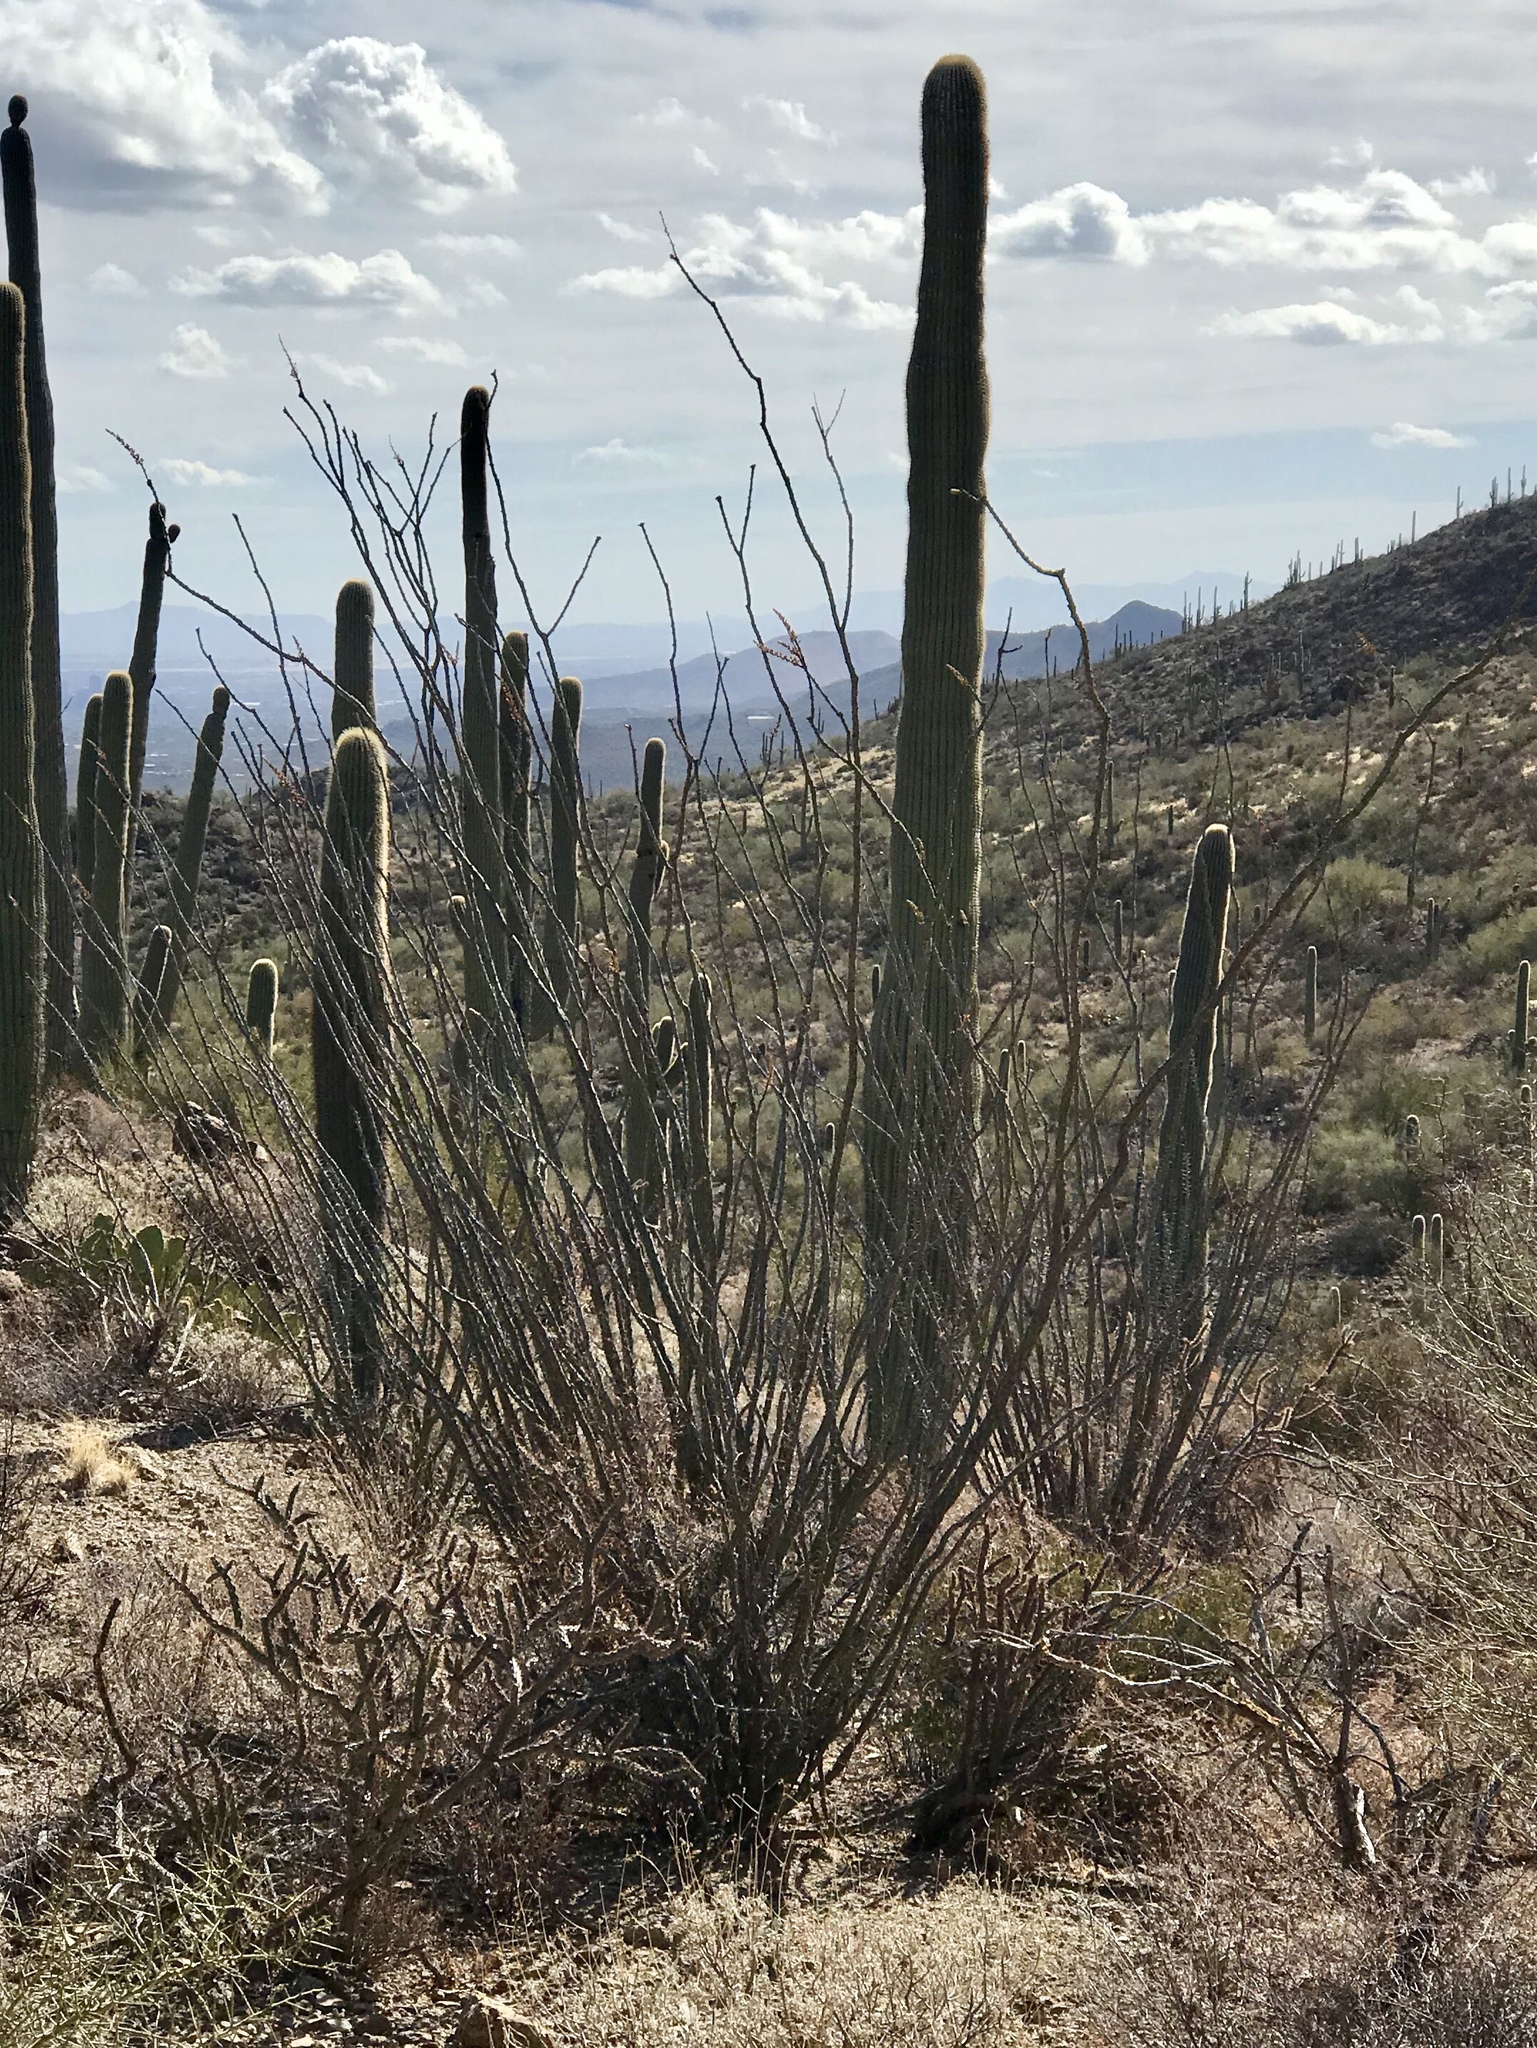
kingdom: Plantae
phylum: Tracheophyta
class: Magnoliopsida
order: Ericales
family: Fouquieriaceae
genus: Fouquieria
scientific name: Fouquieria splendens
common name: Vine-cactus
